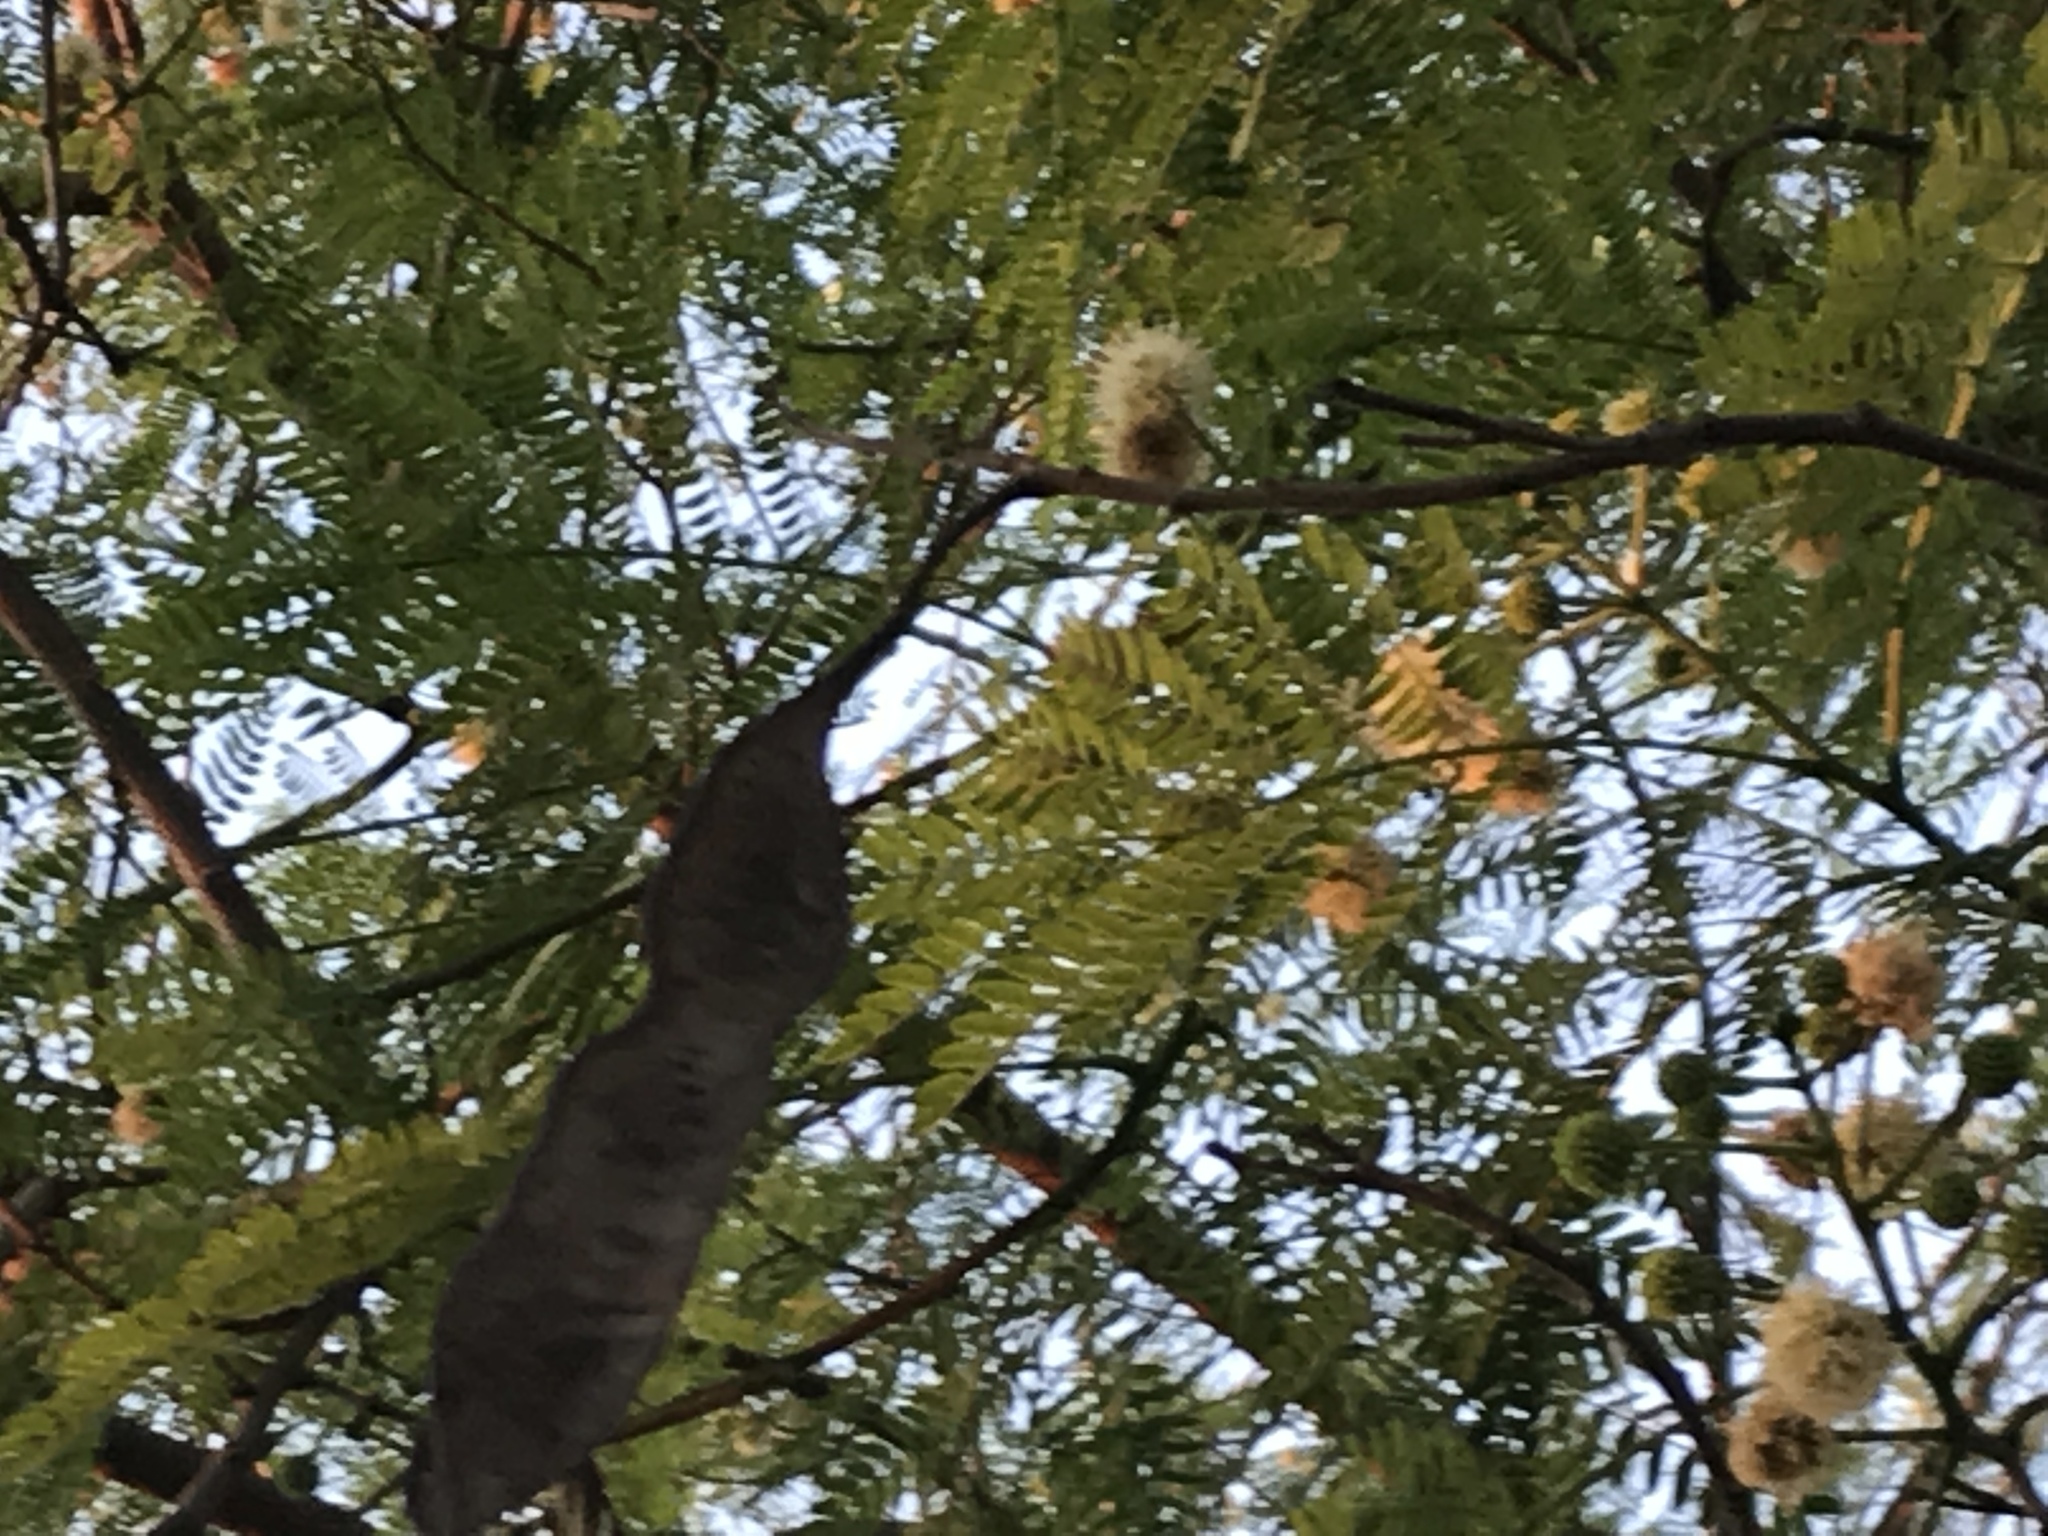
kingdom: Plantae
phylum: Tracheophyta
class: Magnoliopsida
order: Fabales
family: Fabaceae
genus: Leucaena
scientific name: Leucaena leucocephala
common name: White leadtree
